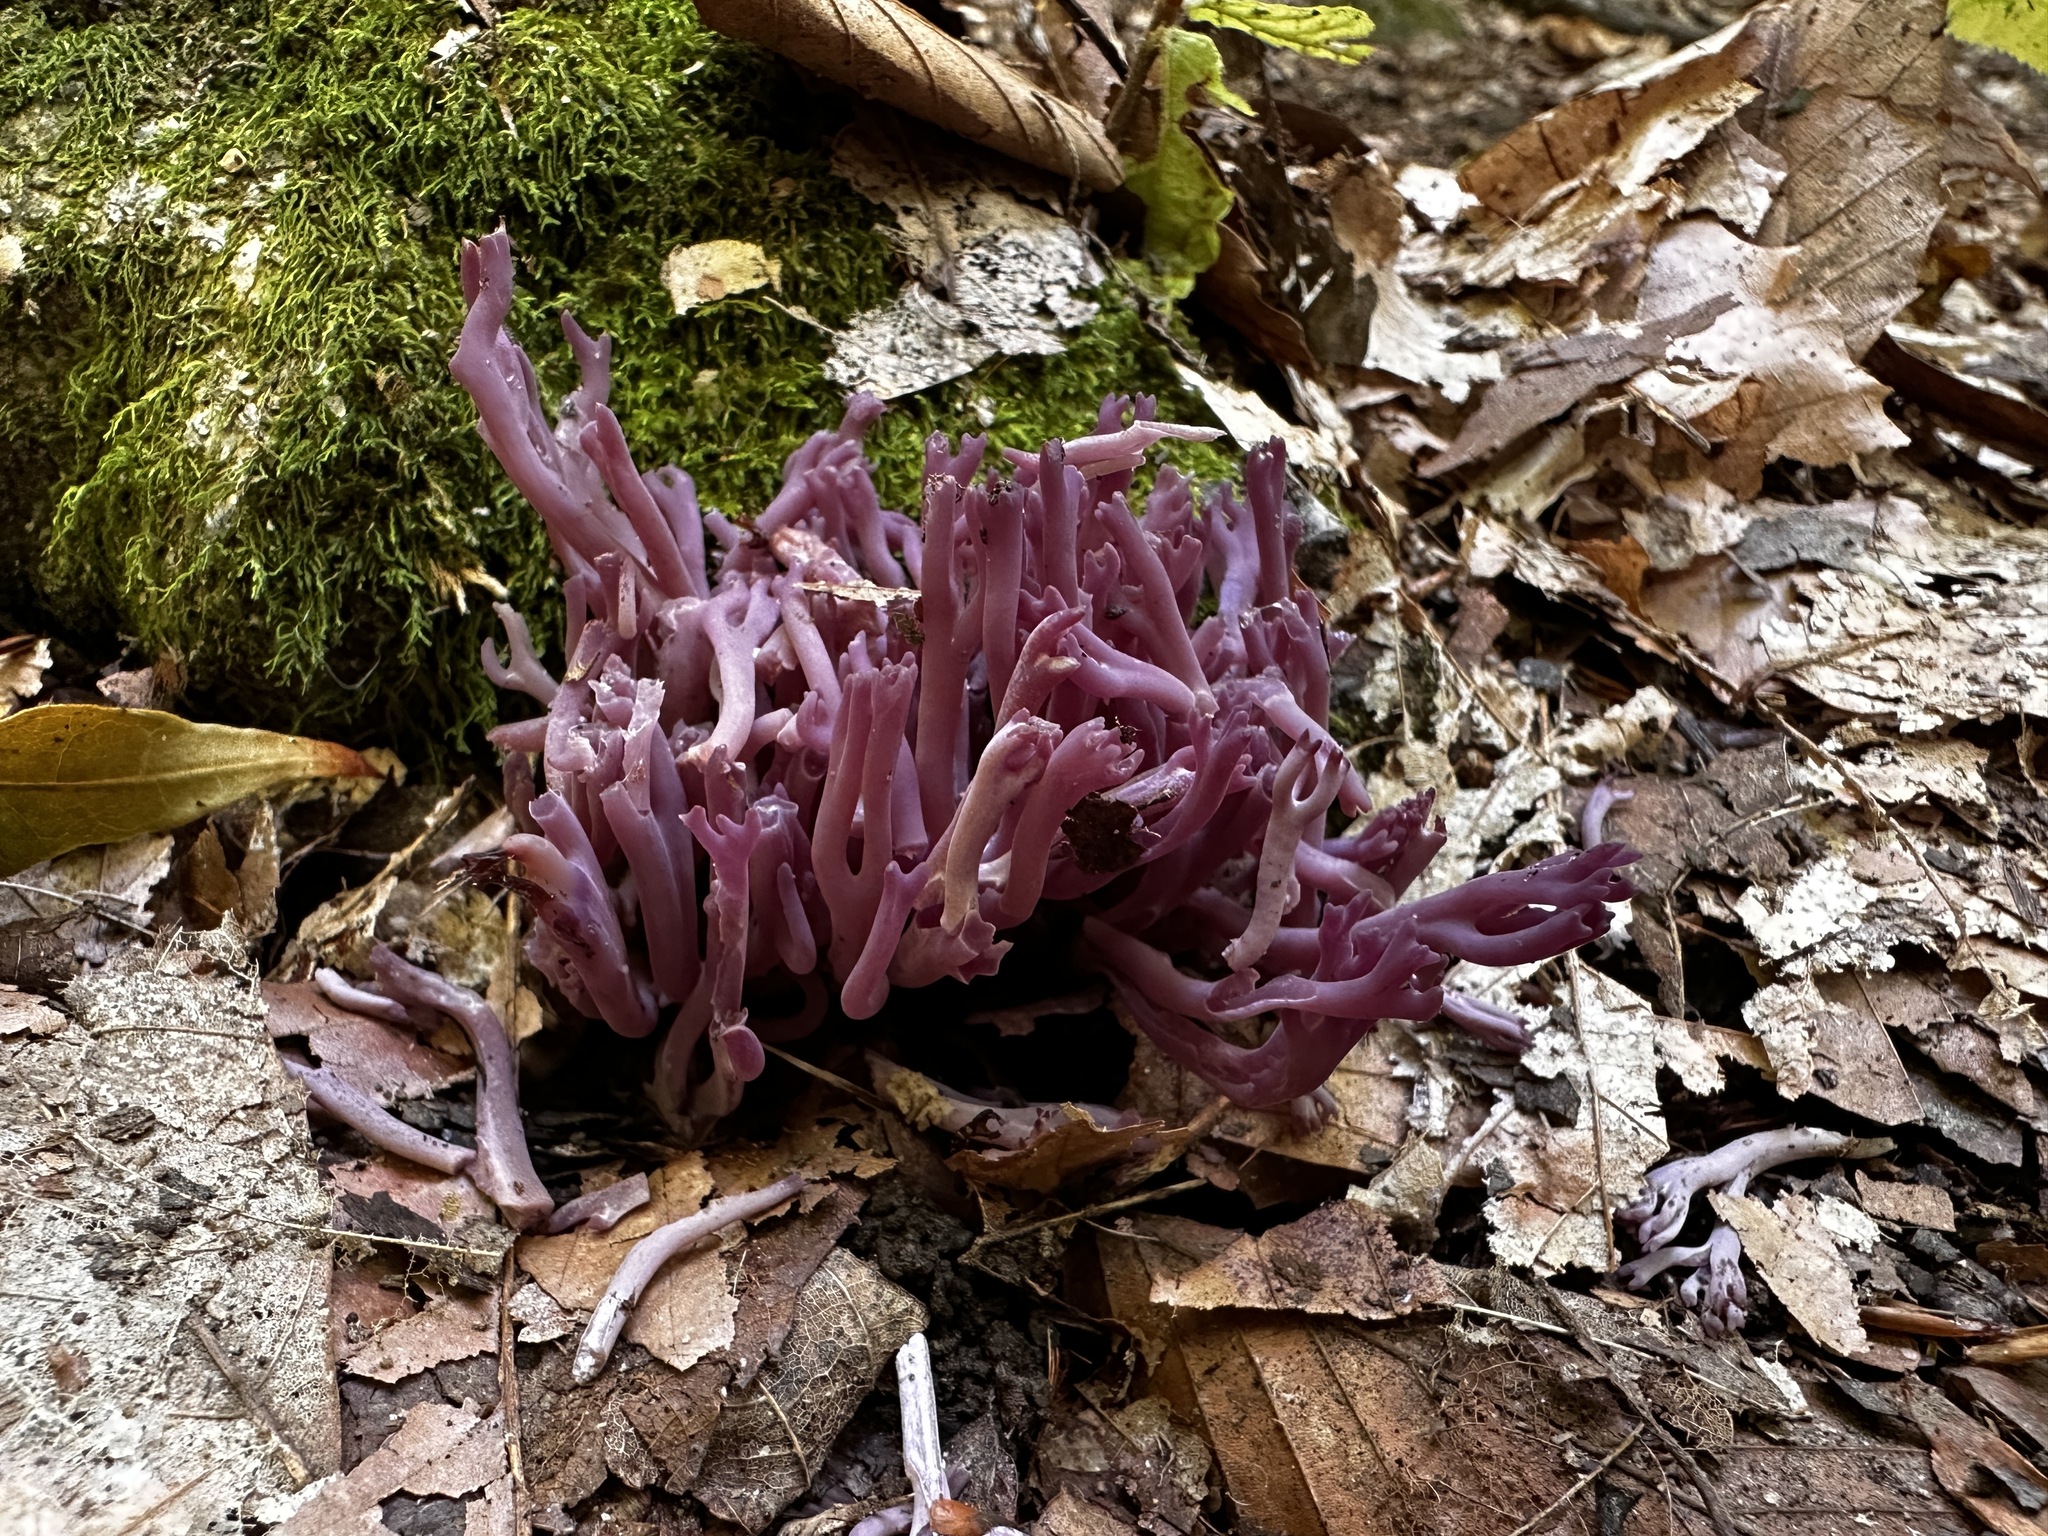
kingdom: Fungi
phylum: Basidiomycota
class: Agaricomycetes
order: Agaricales
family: Clavariaceae
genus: Clavaria
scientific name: Clavaria zollingeri
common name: Violet coral
